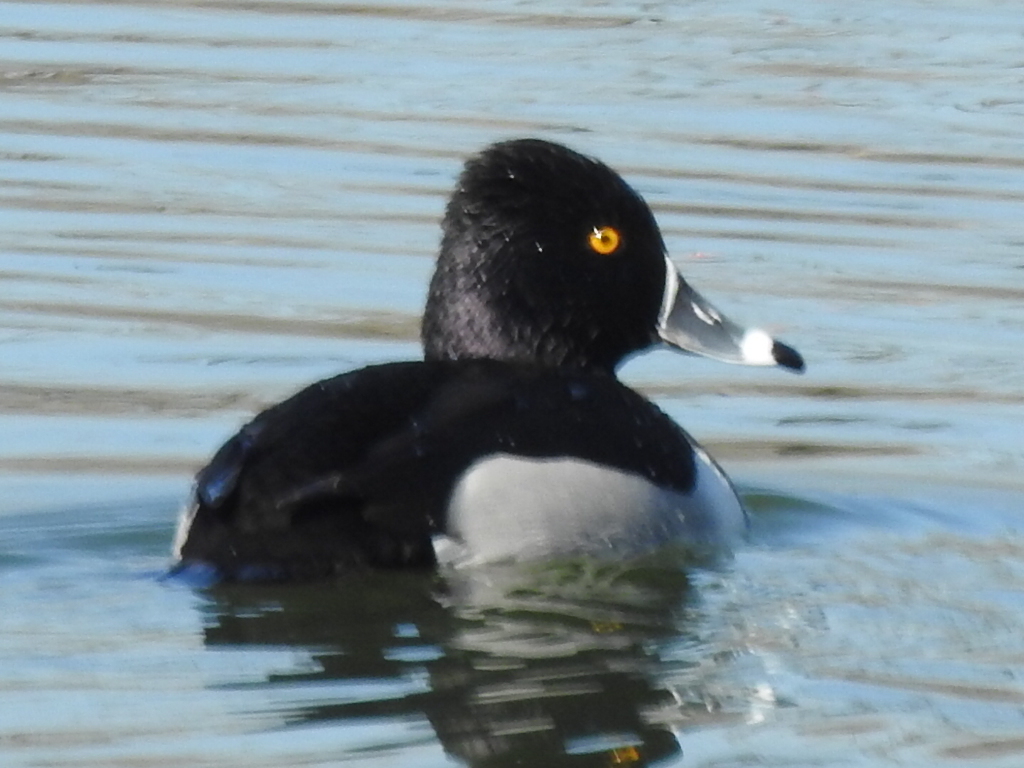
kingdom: Animalia
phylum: Chordata
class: Aves
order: Anseriformes
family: Anatidae
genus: Aythya
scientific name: Aythya collaris
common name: Ring-necked duck
